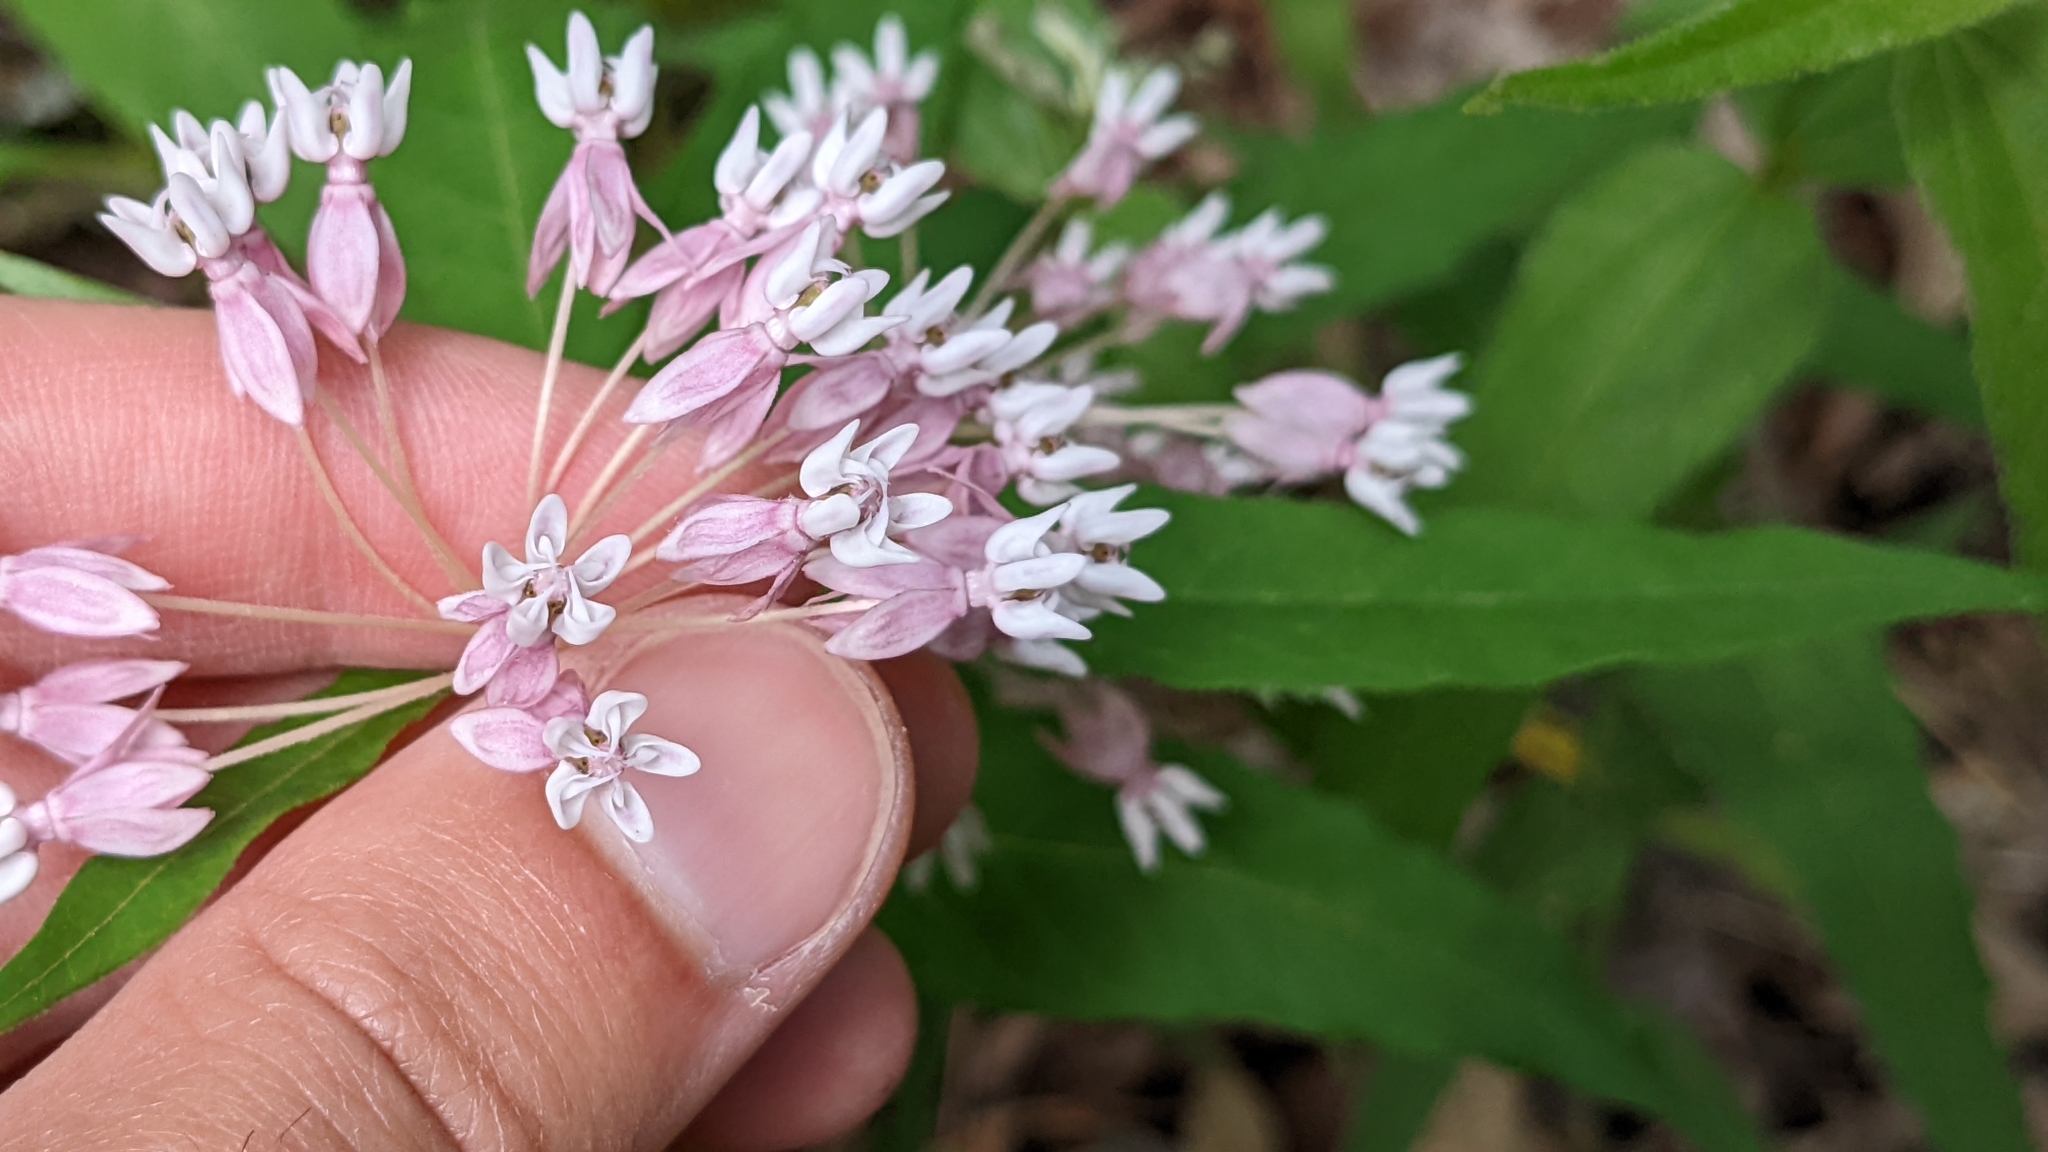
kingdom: Plantae
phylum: Tracheophyta
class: Magnoliopsida
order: Gentianales
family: Apocynaceae
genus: Asclepias
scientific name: Asclepias quadrifolia
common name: Whorled milkweed
